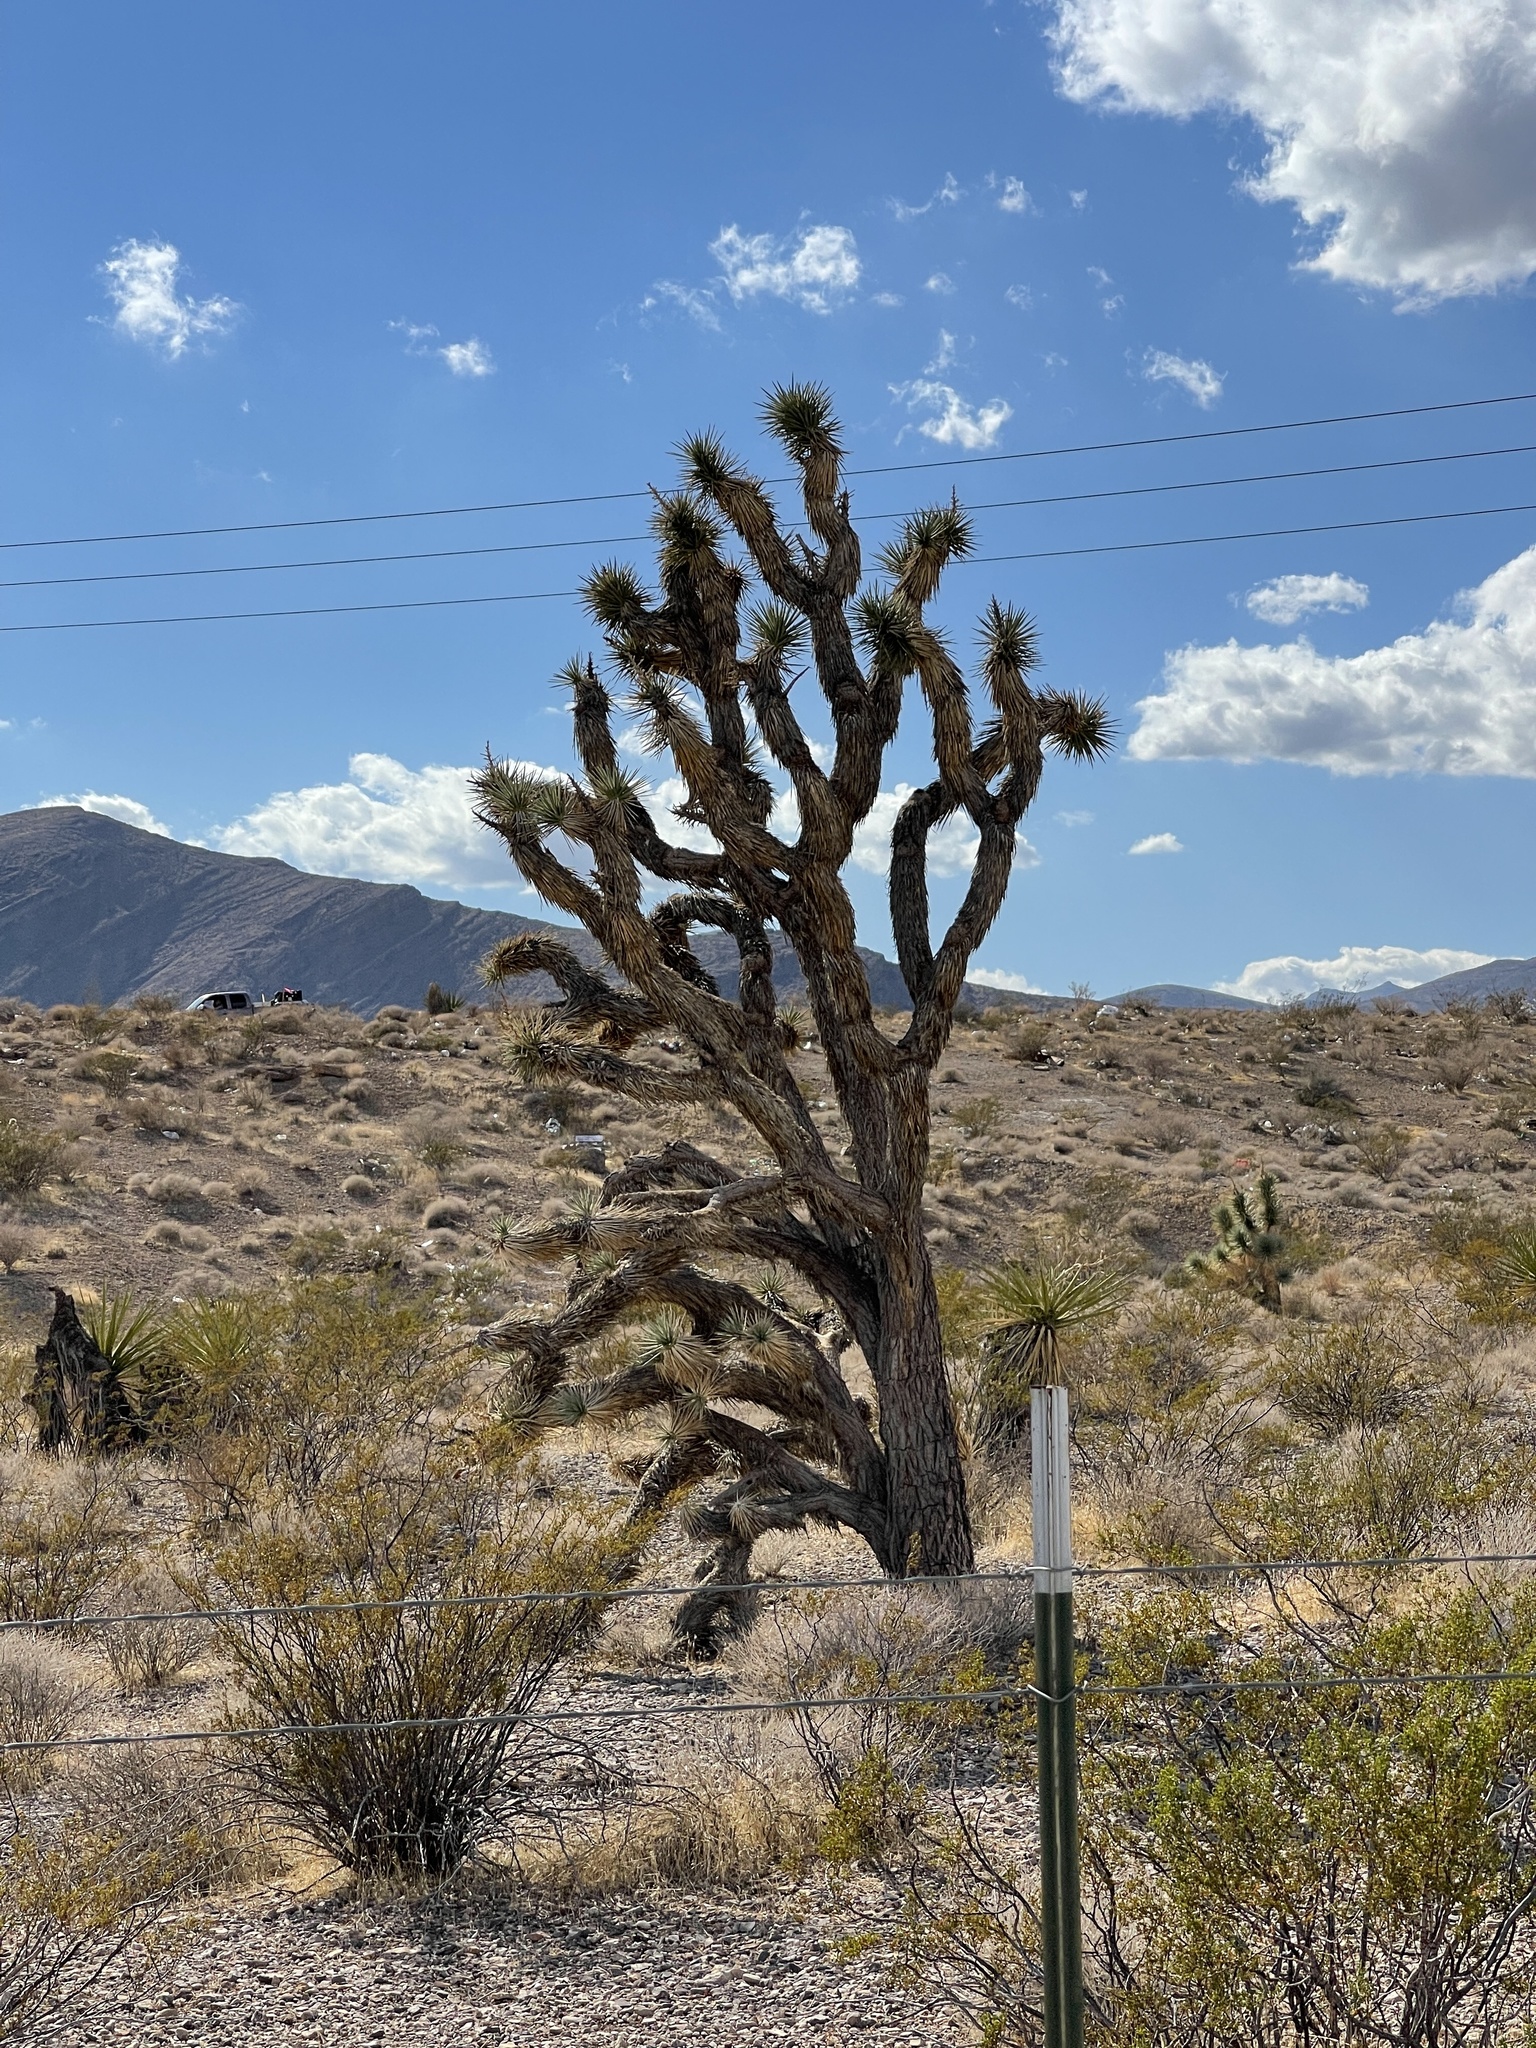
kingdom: Plantae
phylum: Tracheophyta
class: Liliopsida
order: Asparagales
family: Asparagaceae
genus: Yucca
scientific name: Yucca brevifolia
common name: Joshua tree
